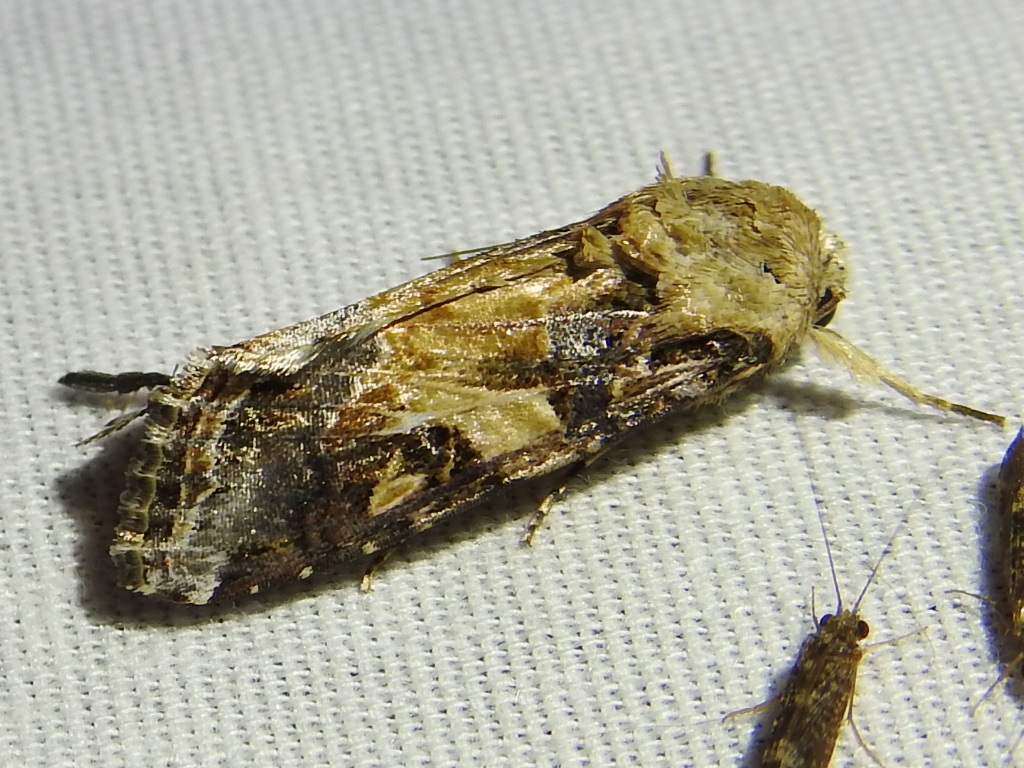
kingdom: Animalia
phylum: Arthropoda
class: Insecta
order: Lepidoptera
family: Noctuidae
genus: Spodoptera
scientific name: Spodoptera ornithogalli
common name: Yellow-striped armyworm
